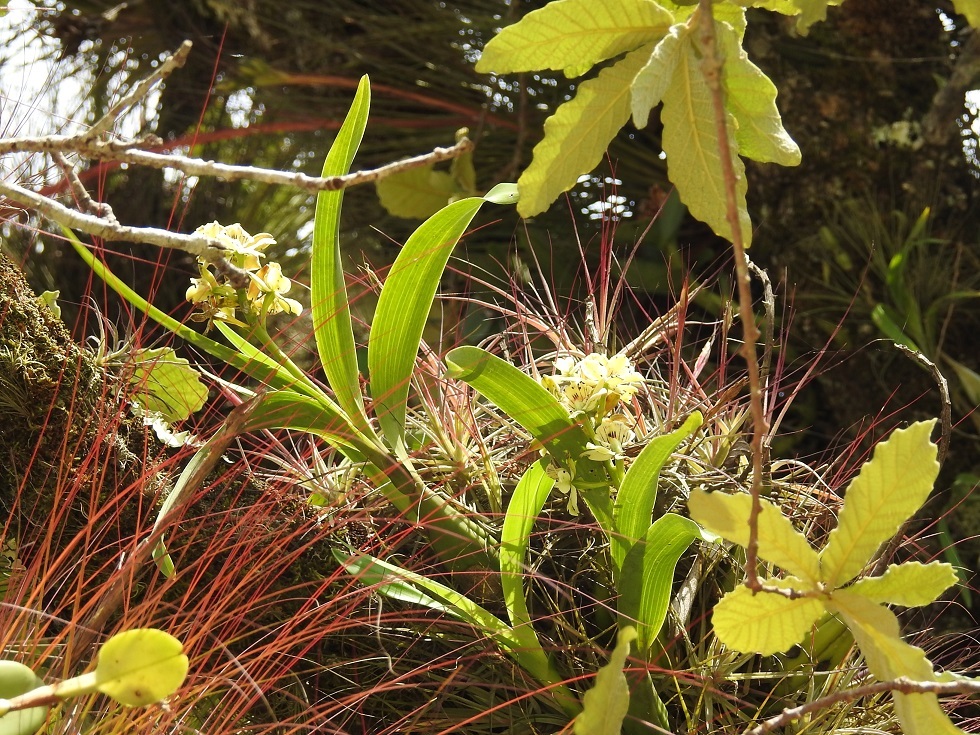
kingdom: Plantae
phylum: Tracheophyta
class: Liliopsida
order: Asparagales
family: Orchidaceae
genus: Prosthechea
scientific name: Prosthechea radiata
